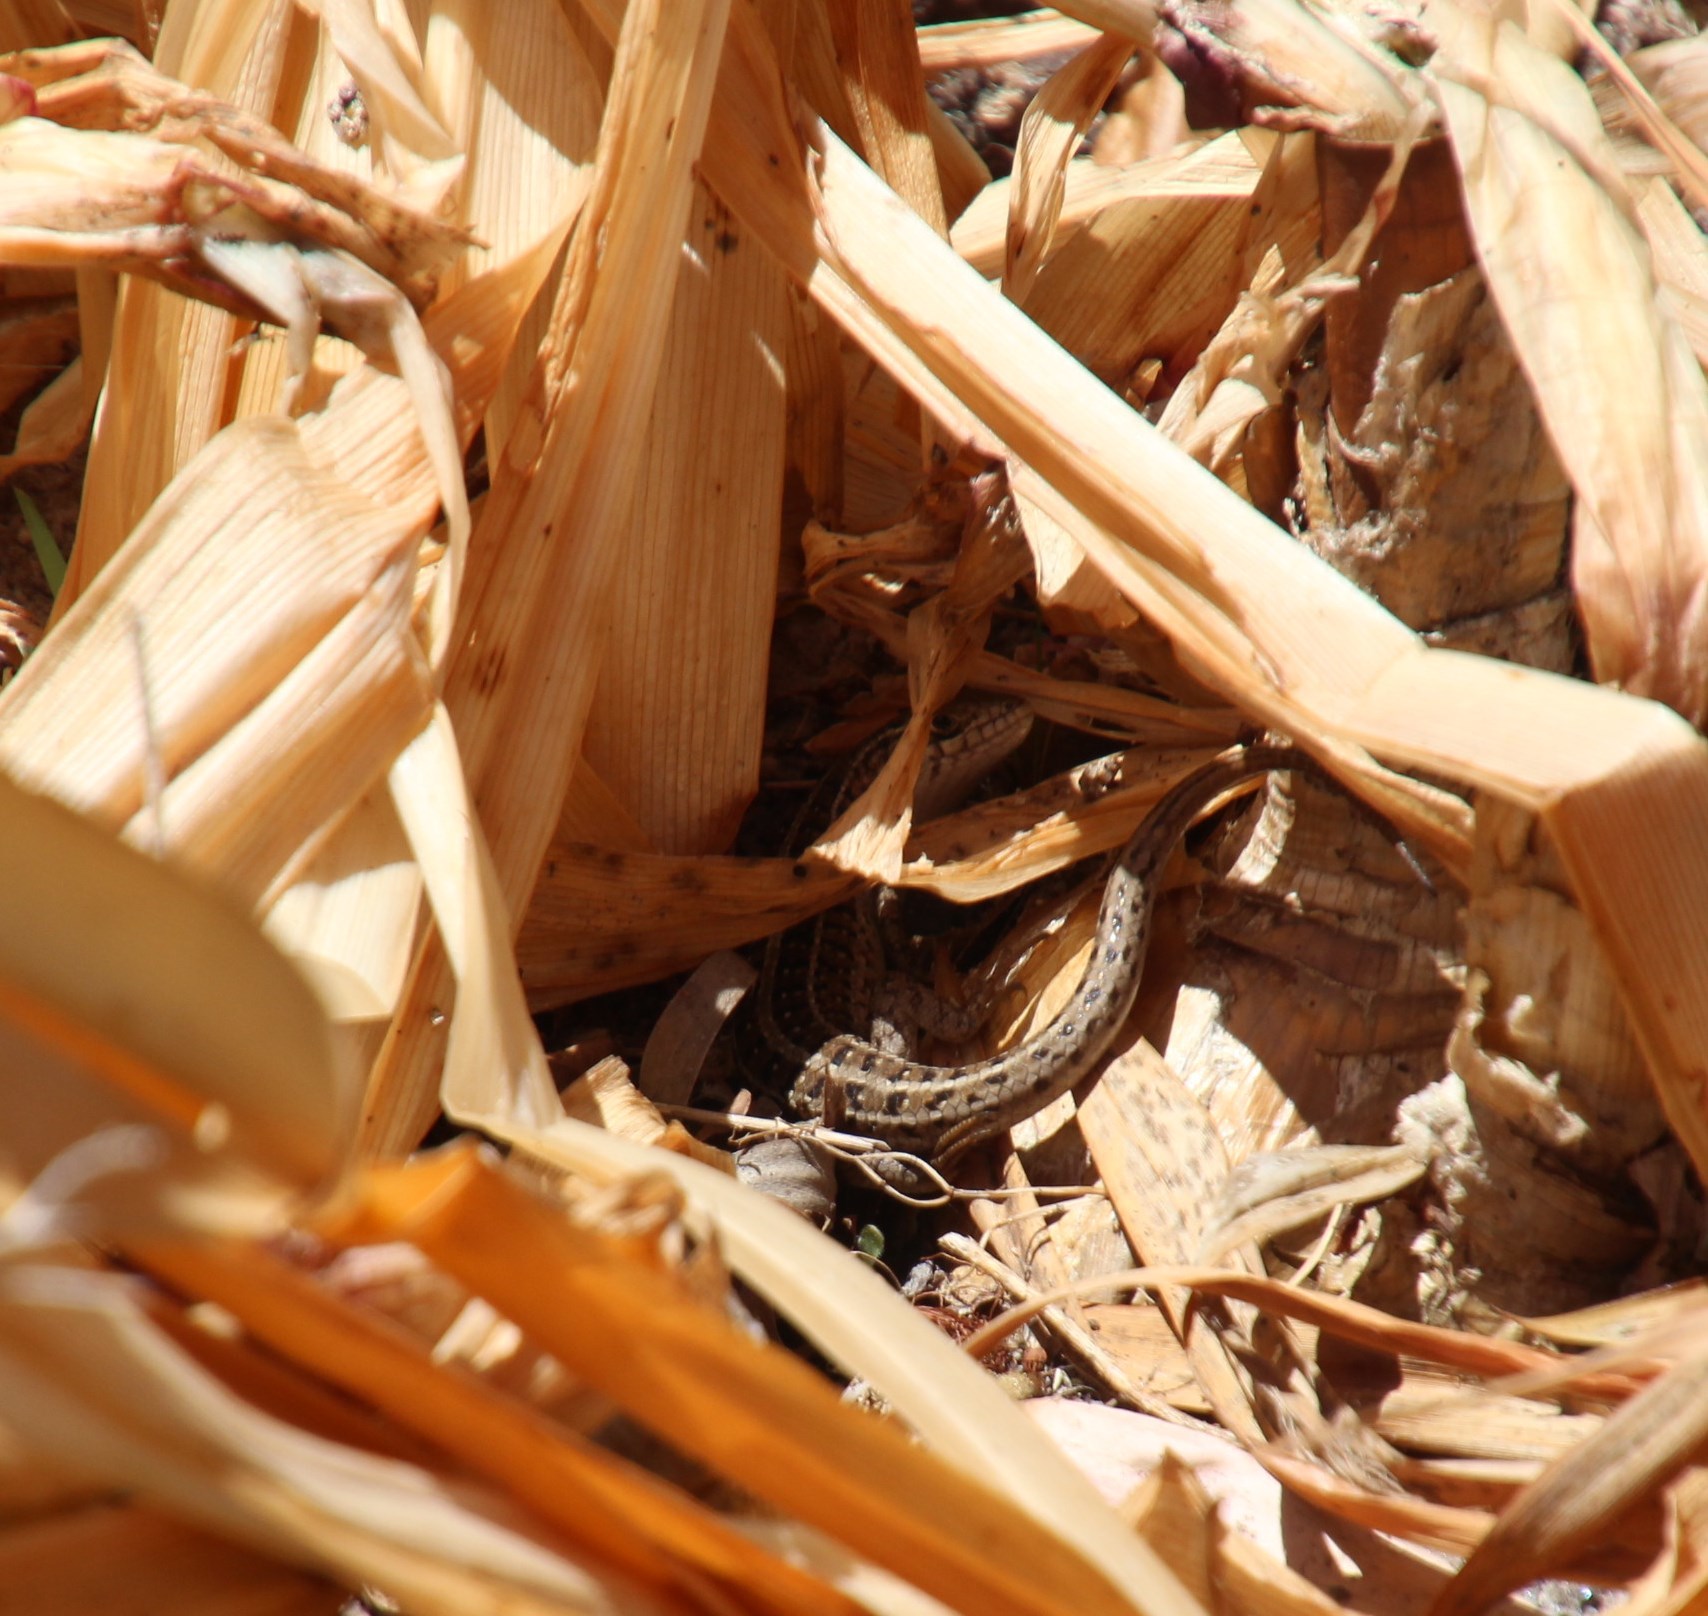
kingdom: Animalia
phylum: Chordata
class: Squamata
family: Scincidae
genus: Trachylepis
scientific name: Trachylepis capensis
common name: Cape skink
